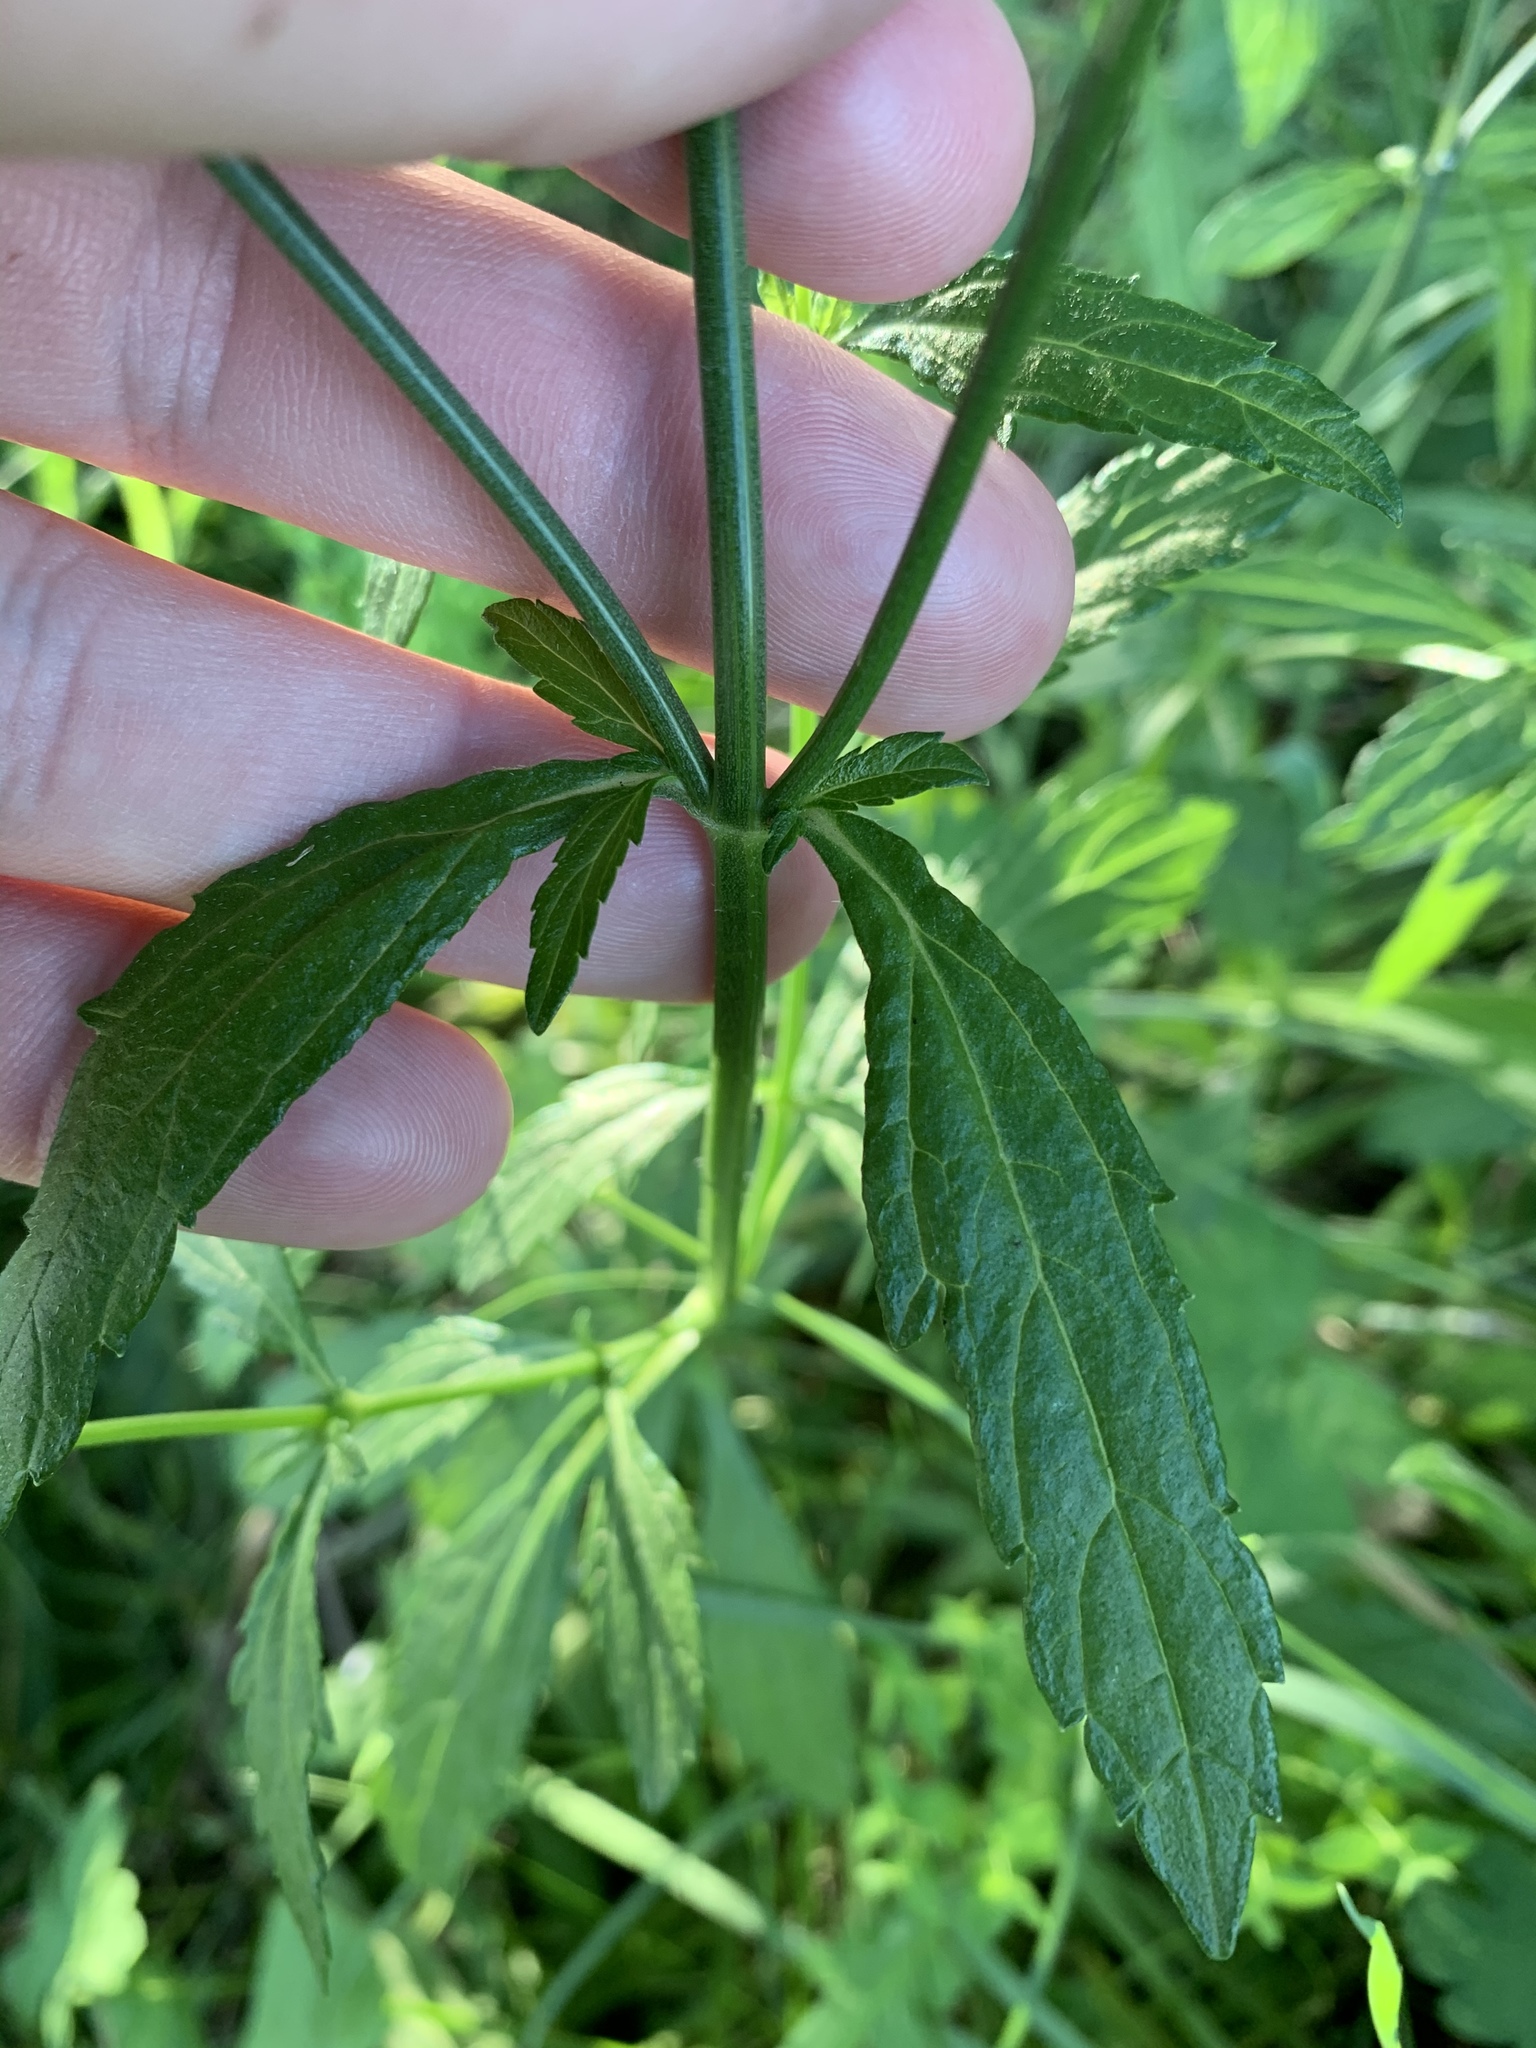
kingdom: Plantae
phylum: Tracheophyta
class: Magnoliopsida
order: Lamiales
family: Verbenaceae
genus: Verbena
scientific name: Verbena officinalis
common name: Vervain
